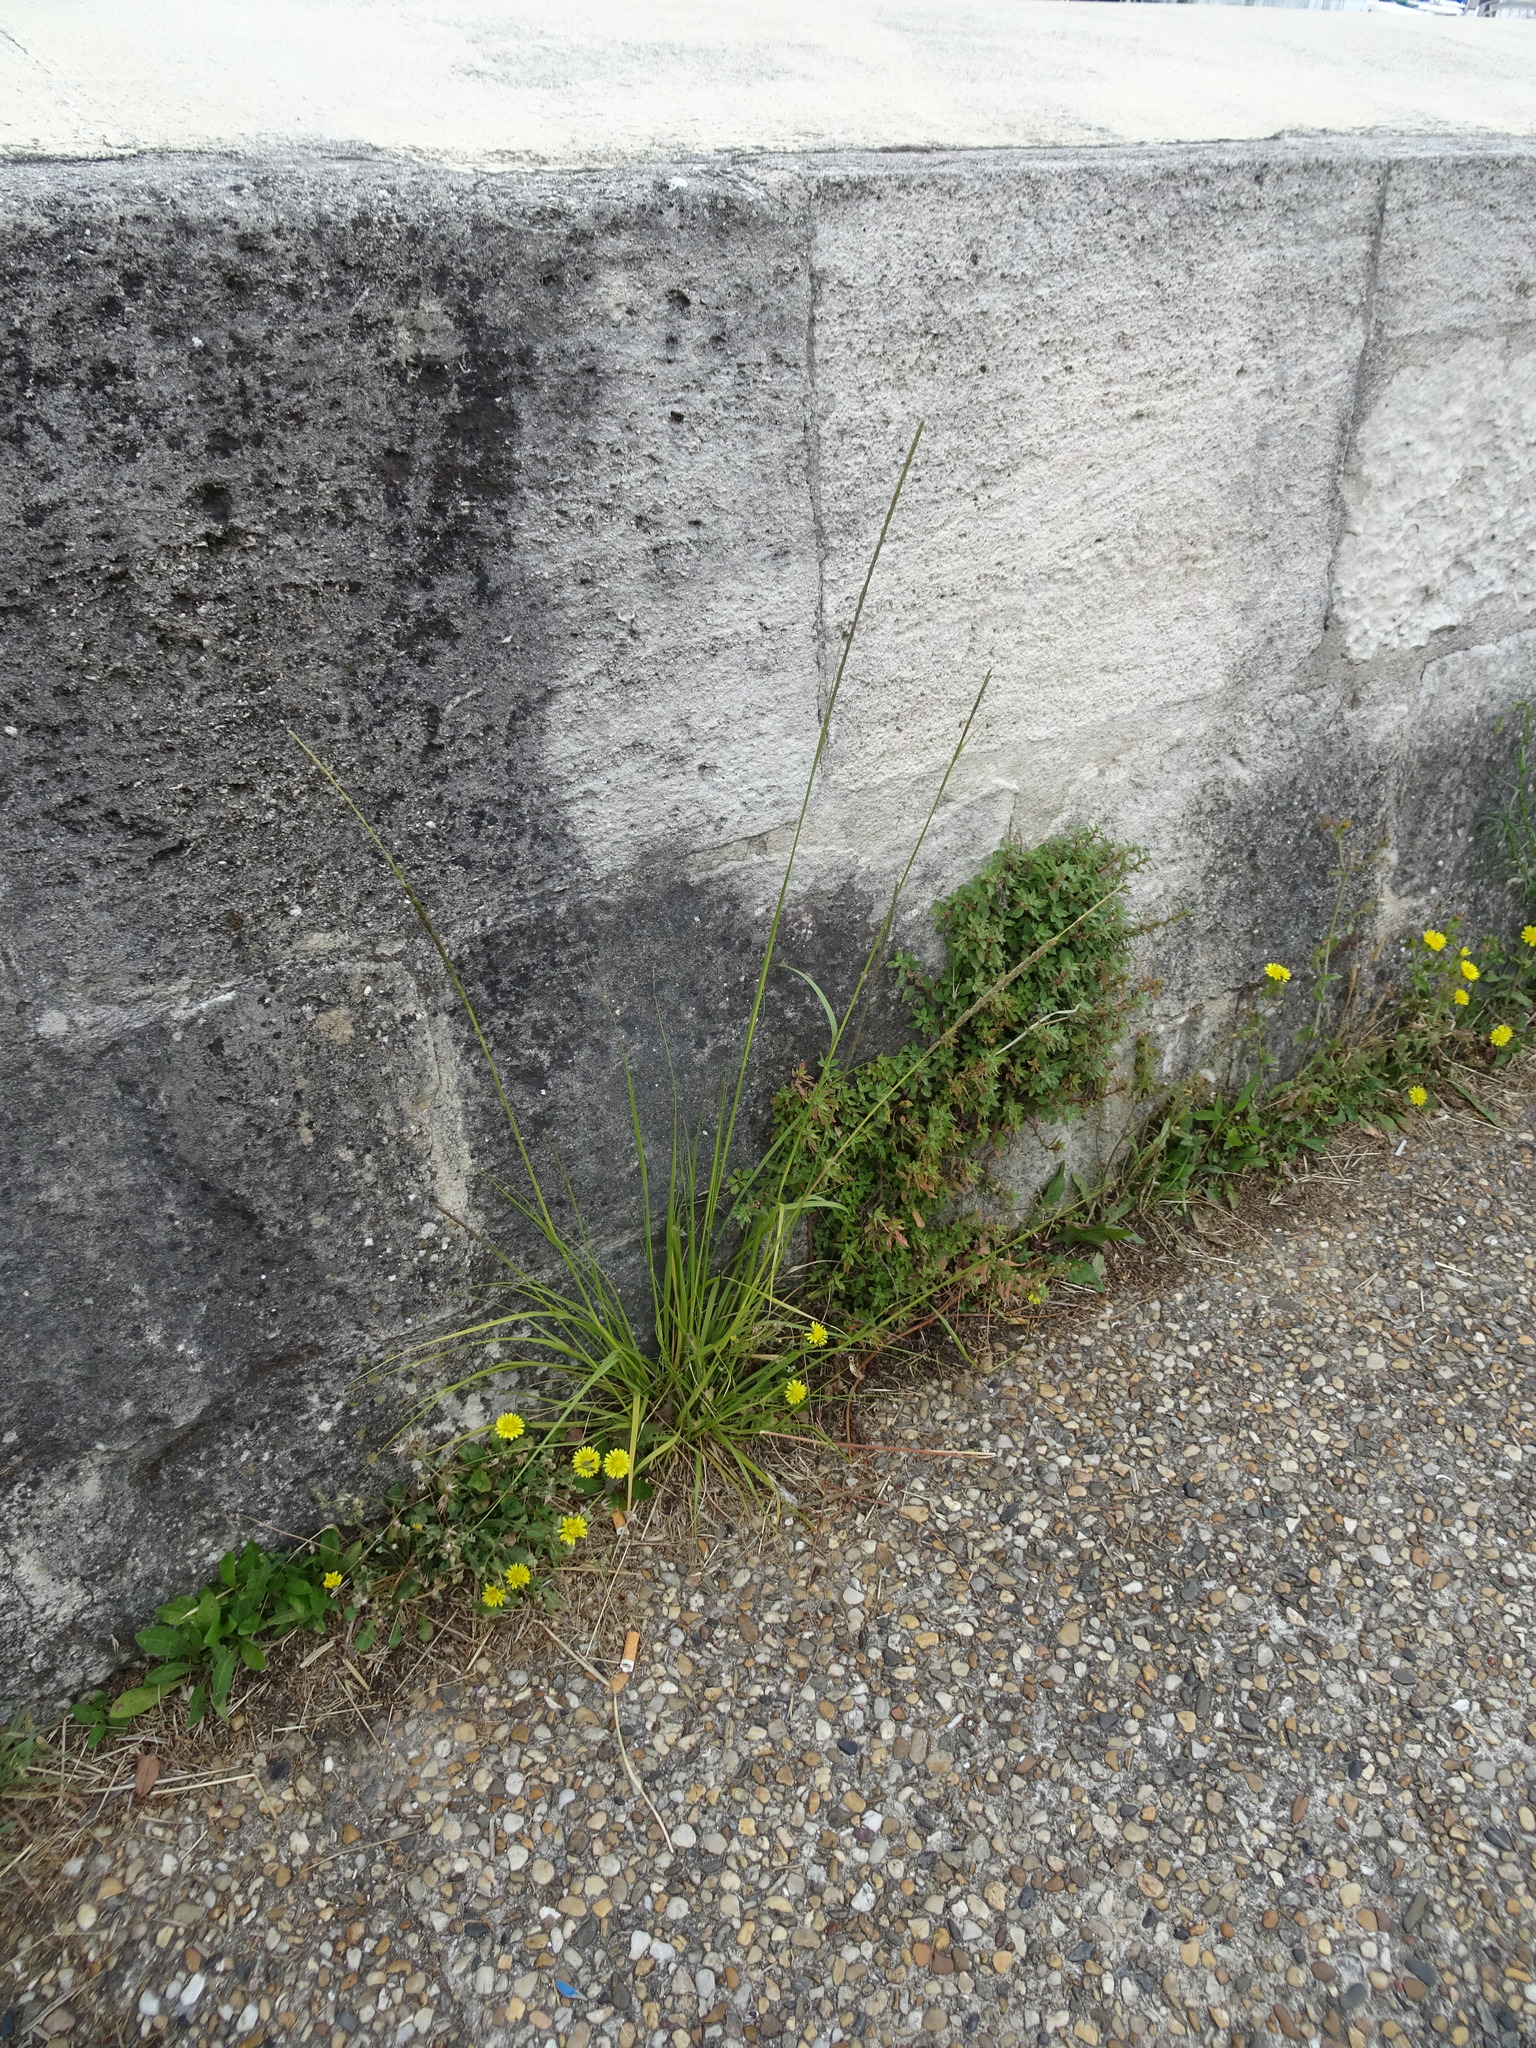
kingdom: Plantae
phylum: Tracheophyta
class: Liliopsida
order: Poales
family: Poaceae
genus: Sporobolus
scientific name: Sporobolus indicus
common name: Smut grass
